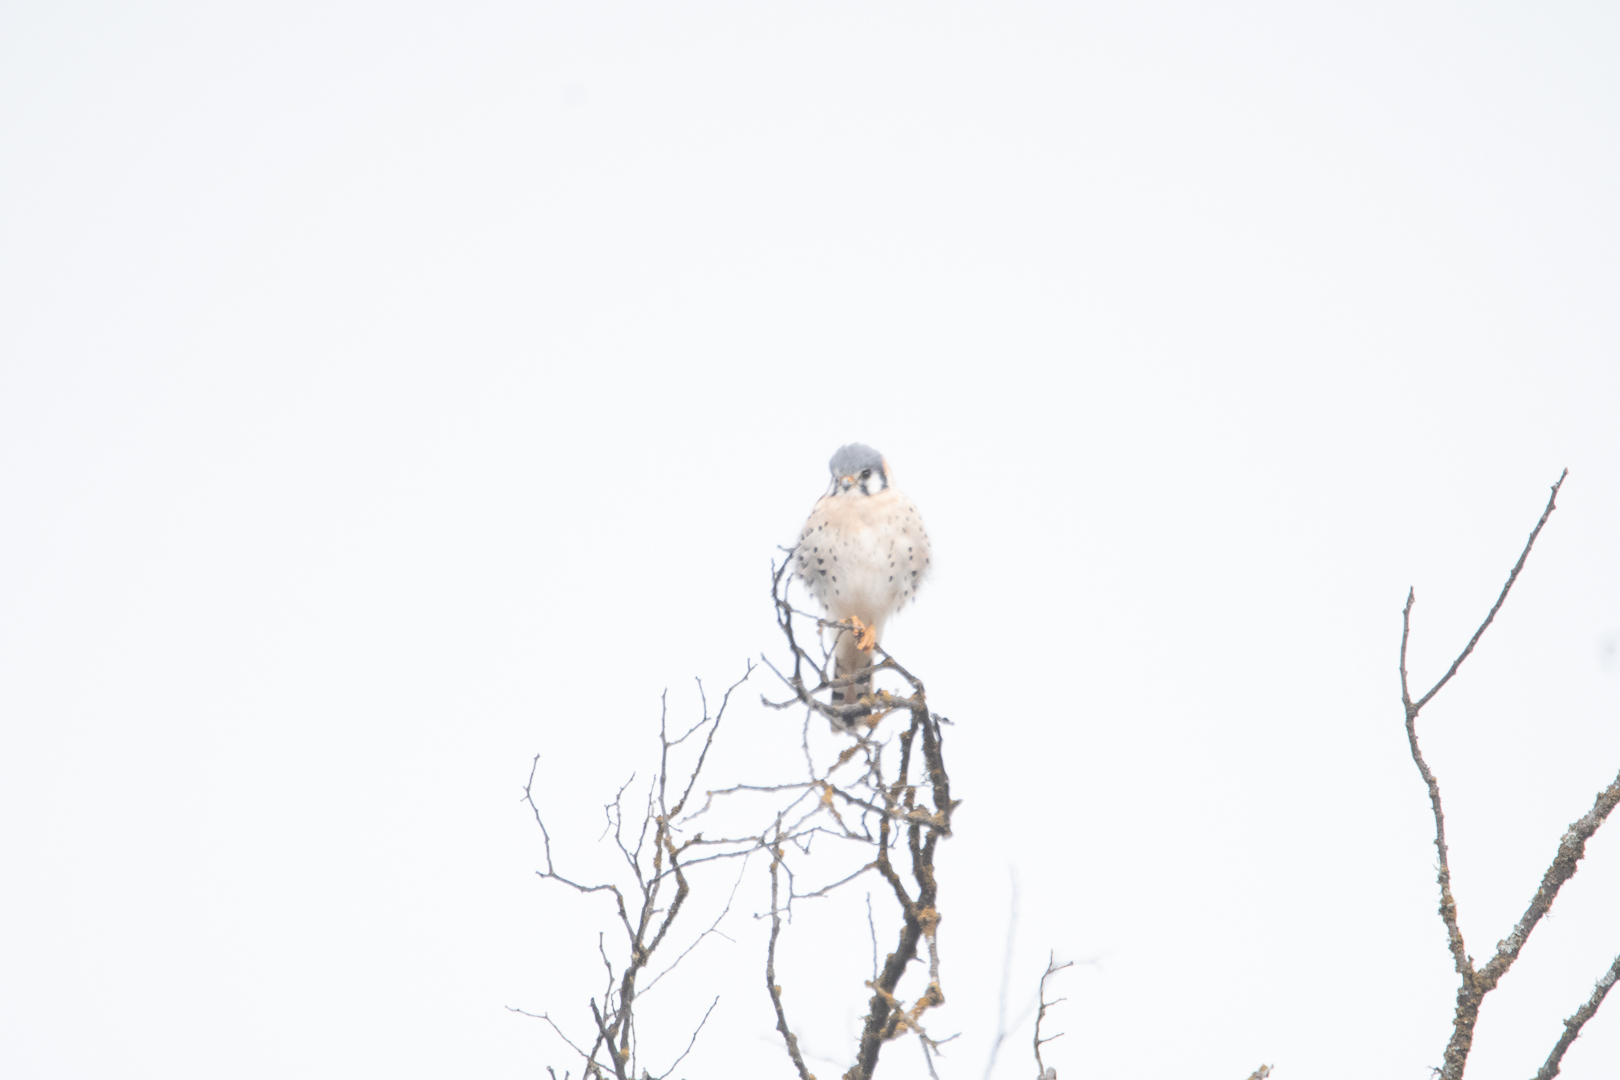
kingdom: Animalia
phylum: Chordata
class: Aves
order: Falconiformes
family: Falconidae
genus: Falco
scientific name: Falco sparverius
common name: American kestrel
